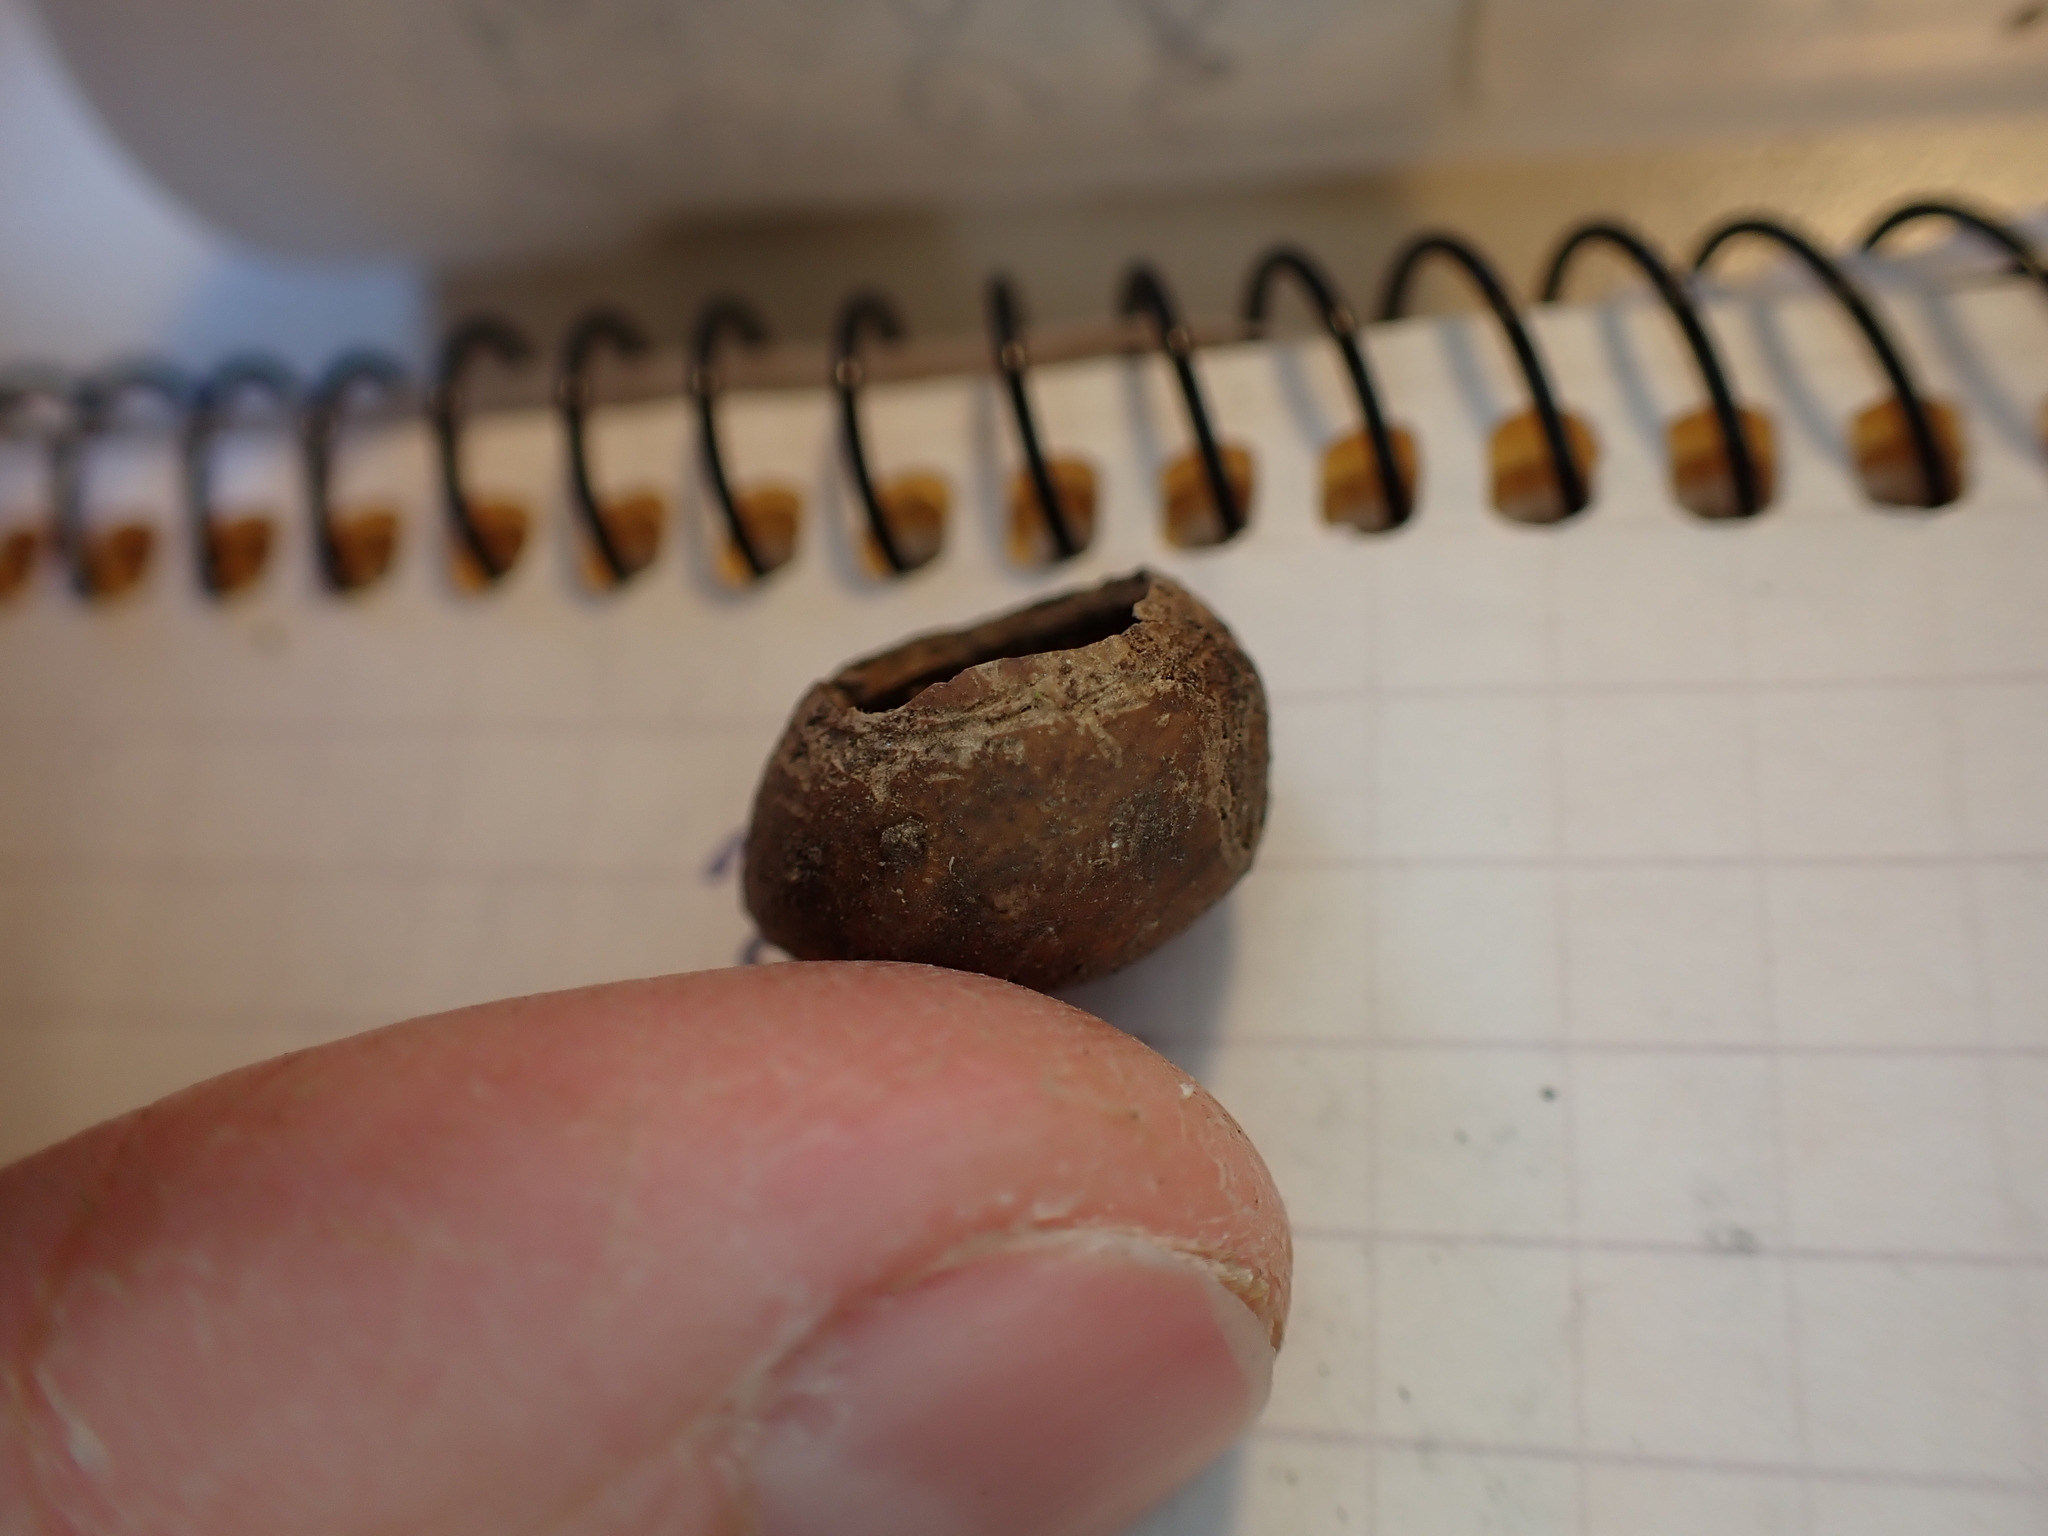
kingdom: Animalia
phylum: Chordata
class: Mammalia
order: Rodentia
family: Gliridae
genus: Muscardinus
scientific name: Muscardinus avellanarius
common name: Hazel dormouse
